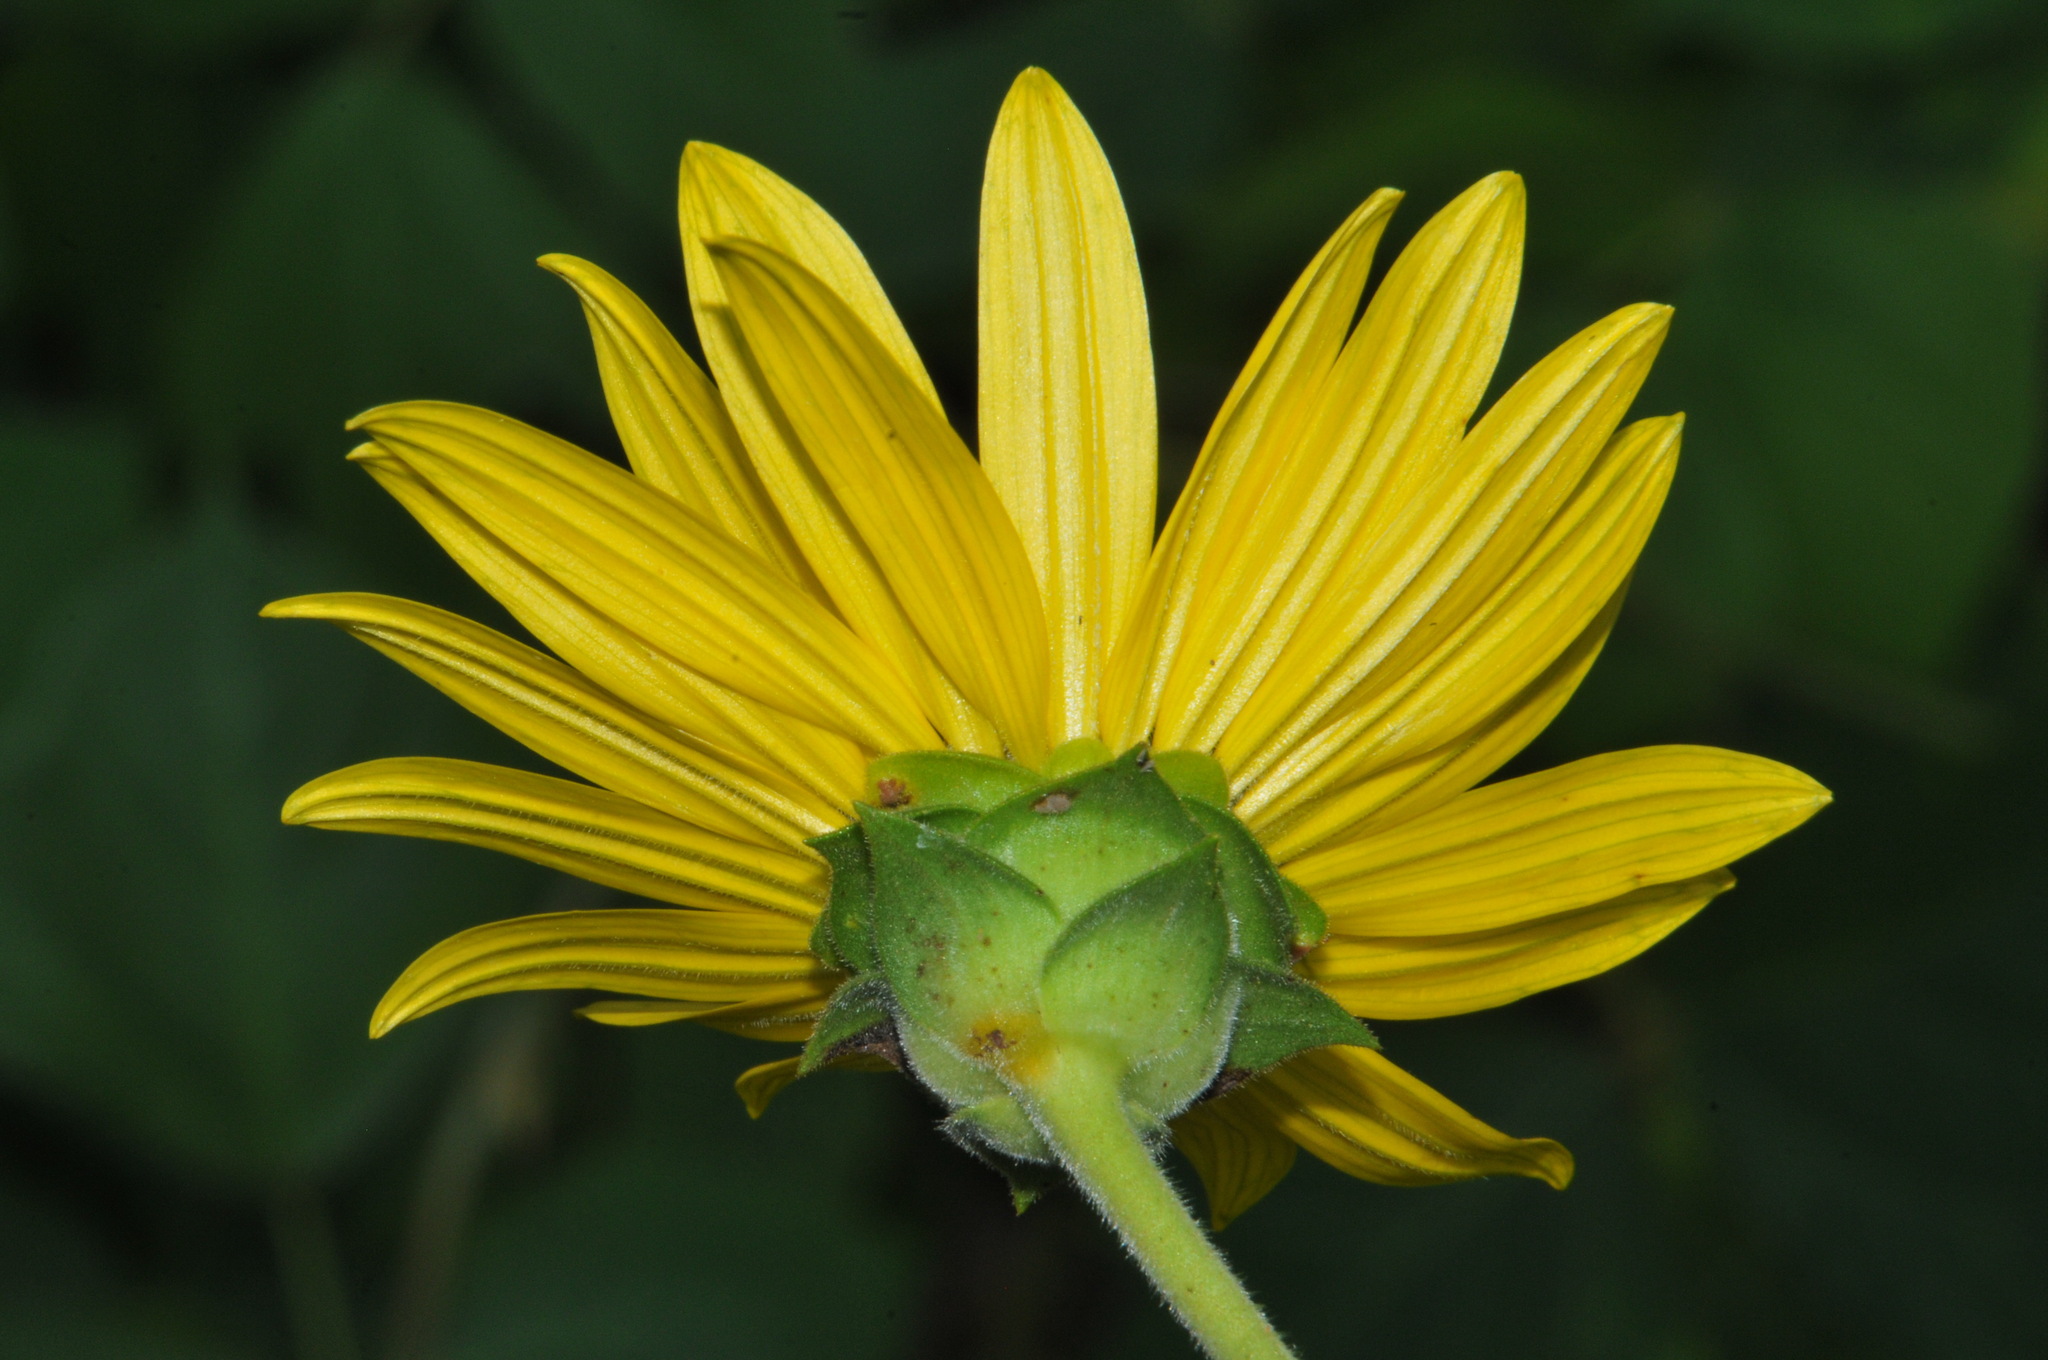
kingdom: Plantae
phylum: Tracheophyta
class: Magnoliopsida
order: Asterales
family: Asteraceae
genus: Silphium
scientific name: Silphium integrifolium
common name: Whole-leaf rosinweed
